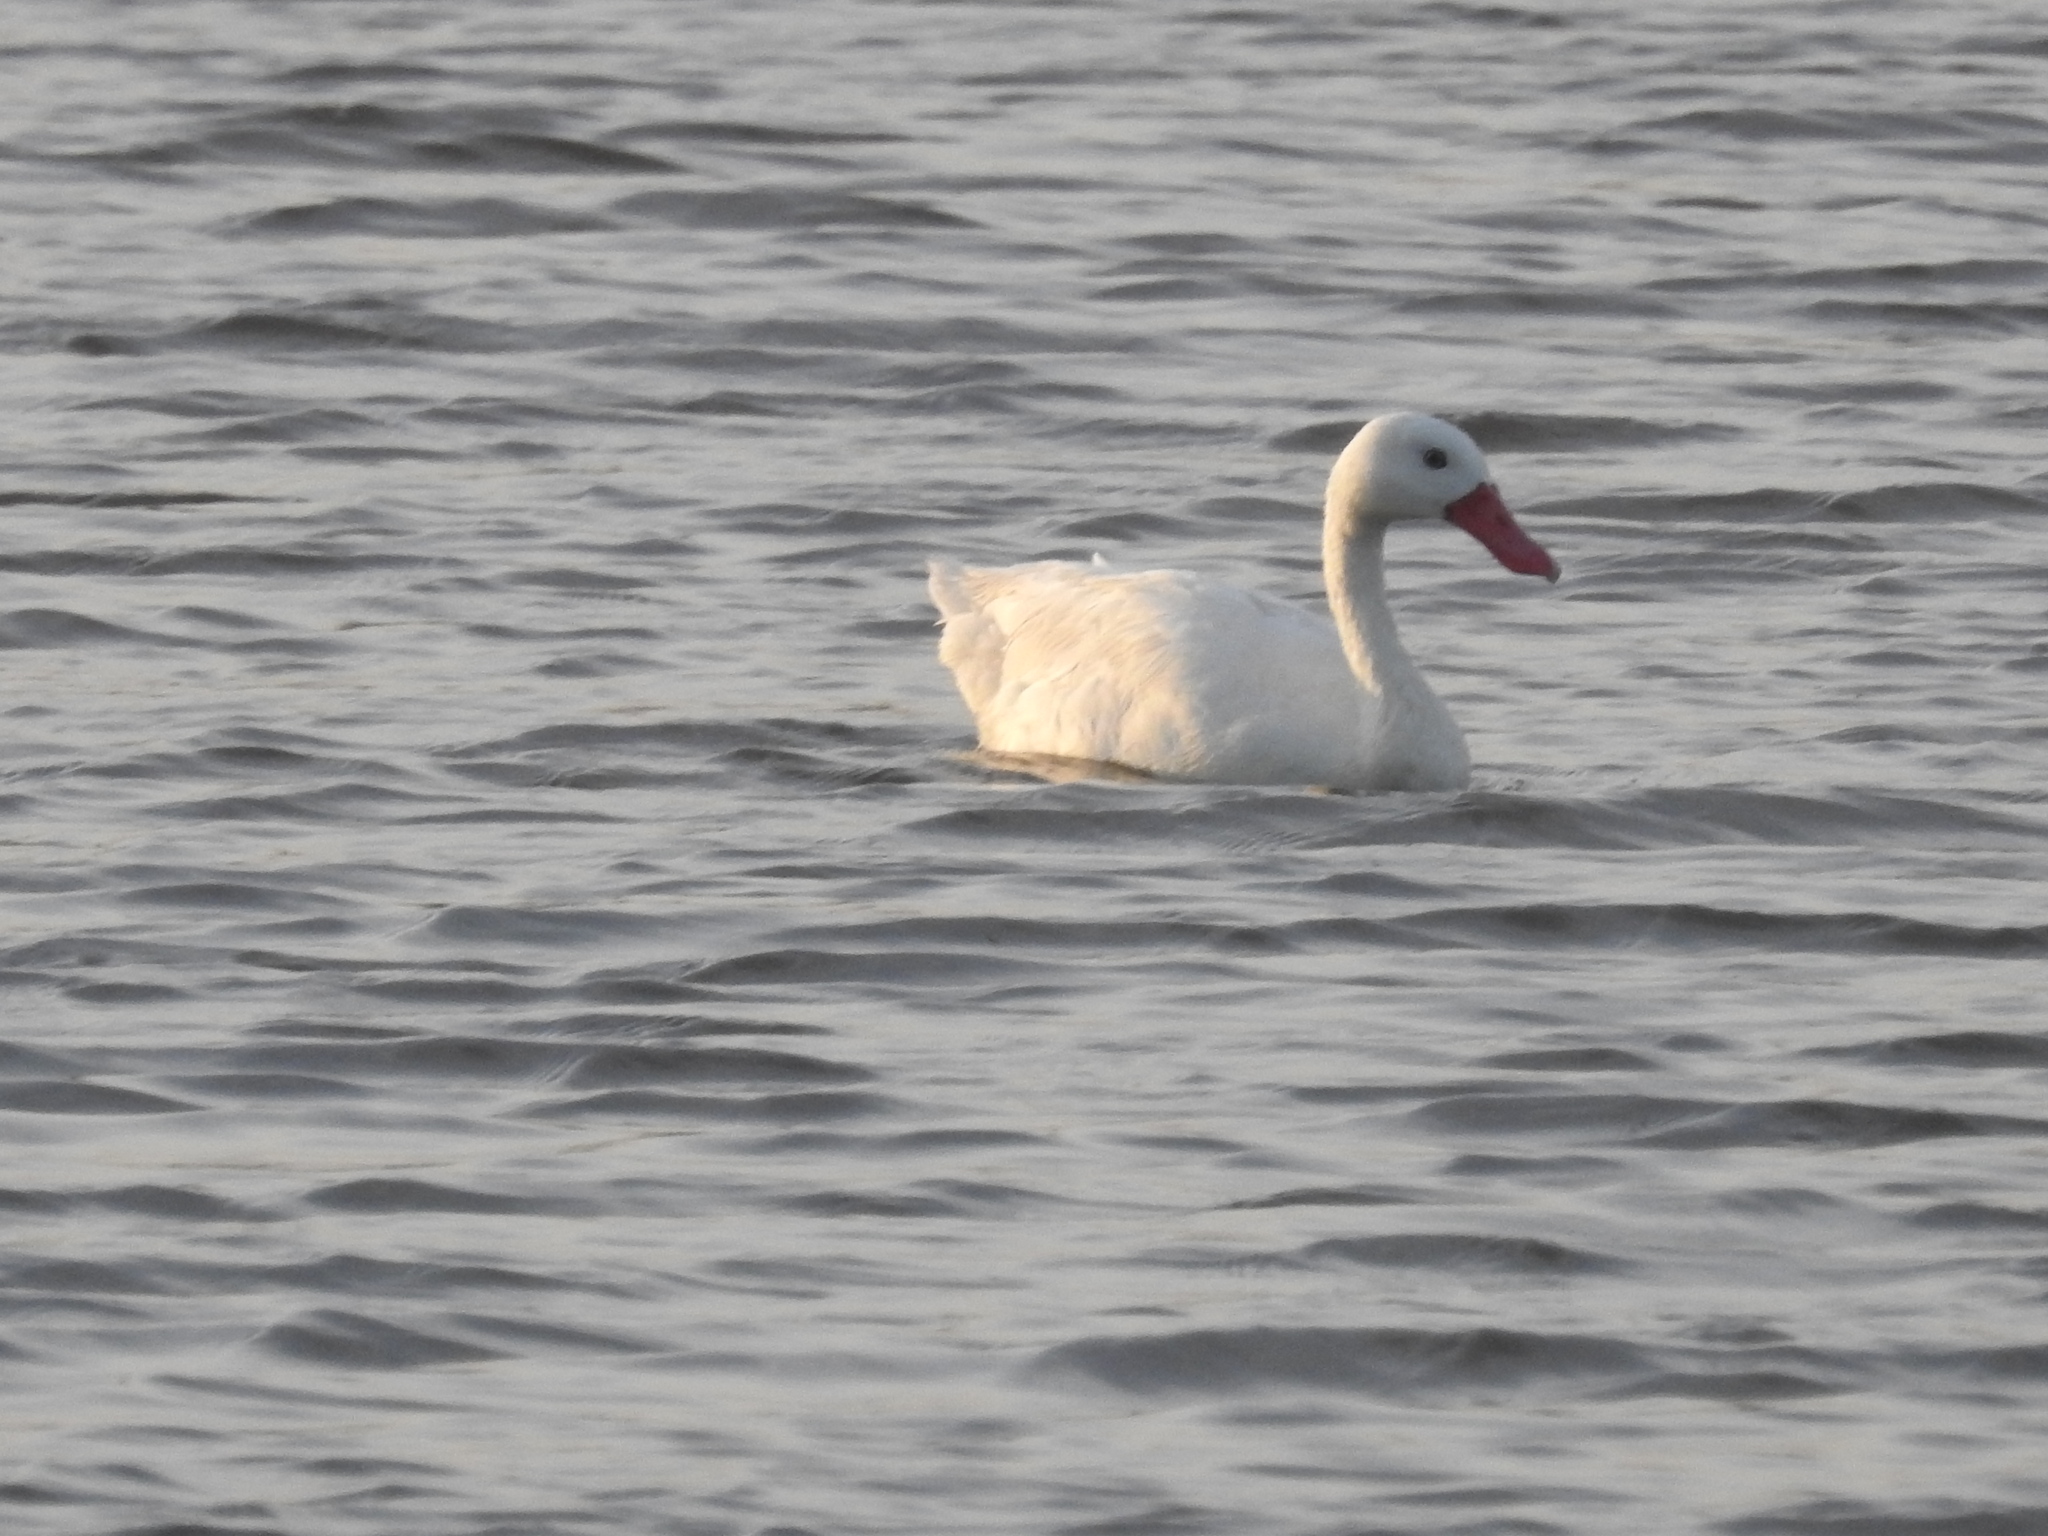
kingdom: Animalia
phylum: Chordata
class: Aves
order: Anseriformes
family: Anatidae
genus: Coscoroba
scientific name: Coscoroba coscoroba
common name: Coscoroba swan
